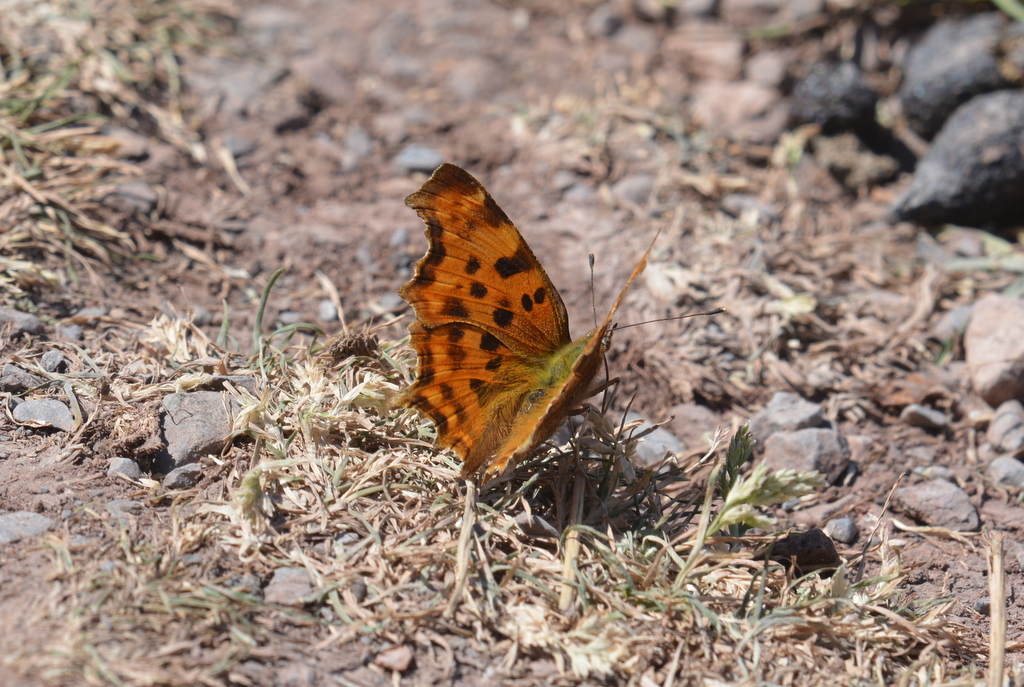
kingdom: Animalia
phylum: Arthropoda
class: Insecta
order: Lepidoptera
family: Nymphalidae
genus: Polygonia
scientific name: Polygonia c-album
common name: Comma
